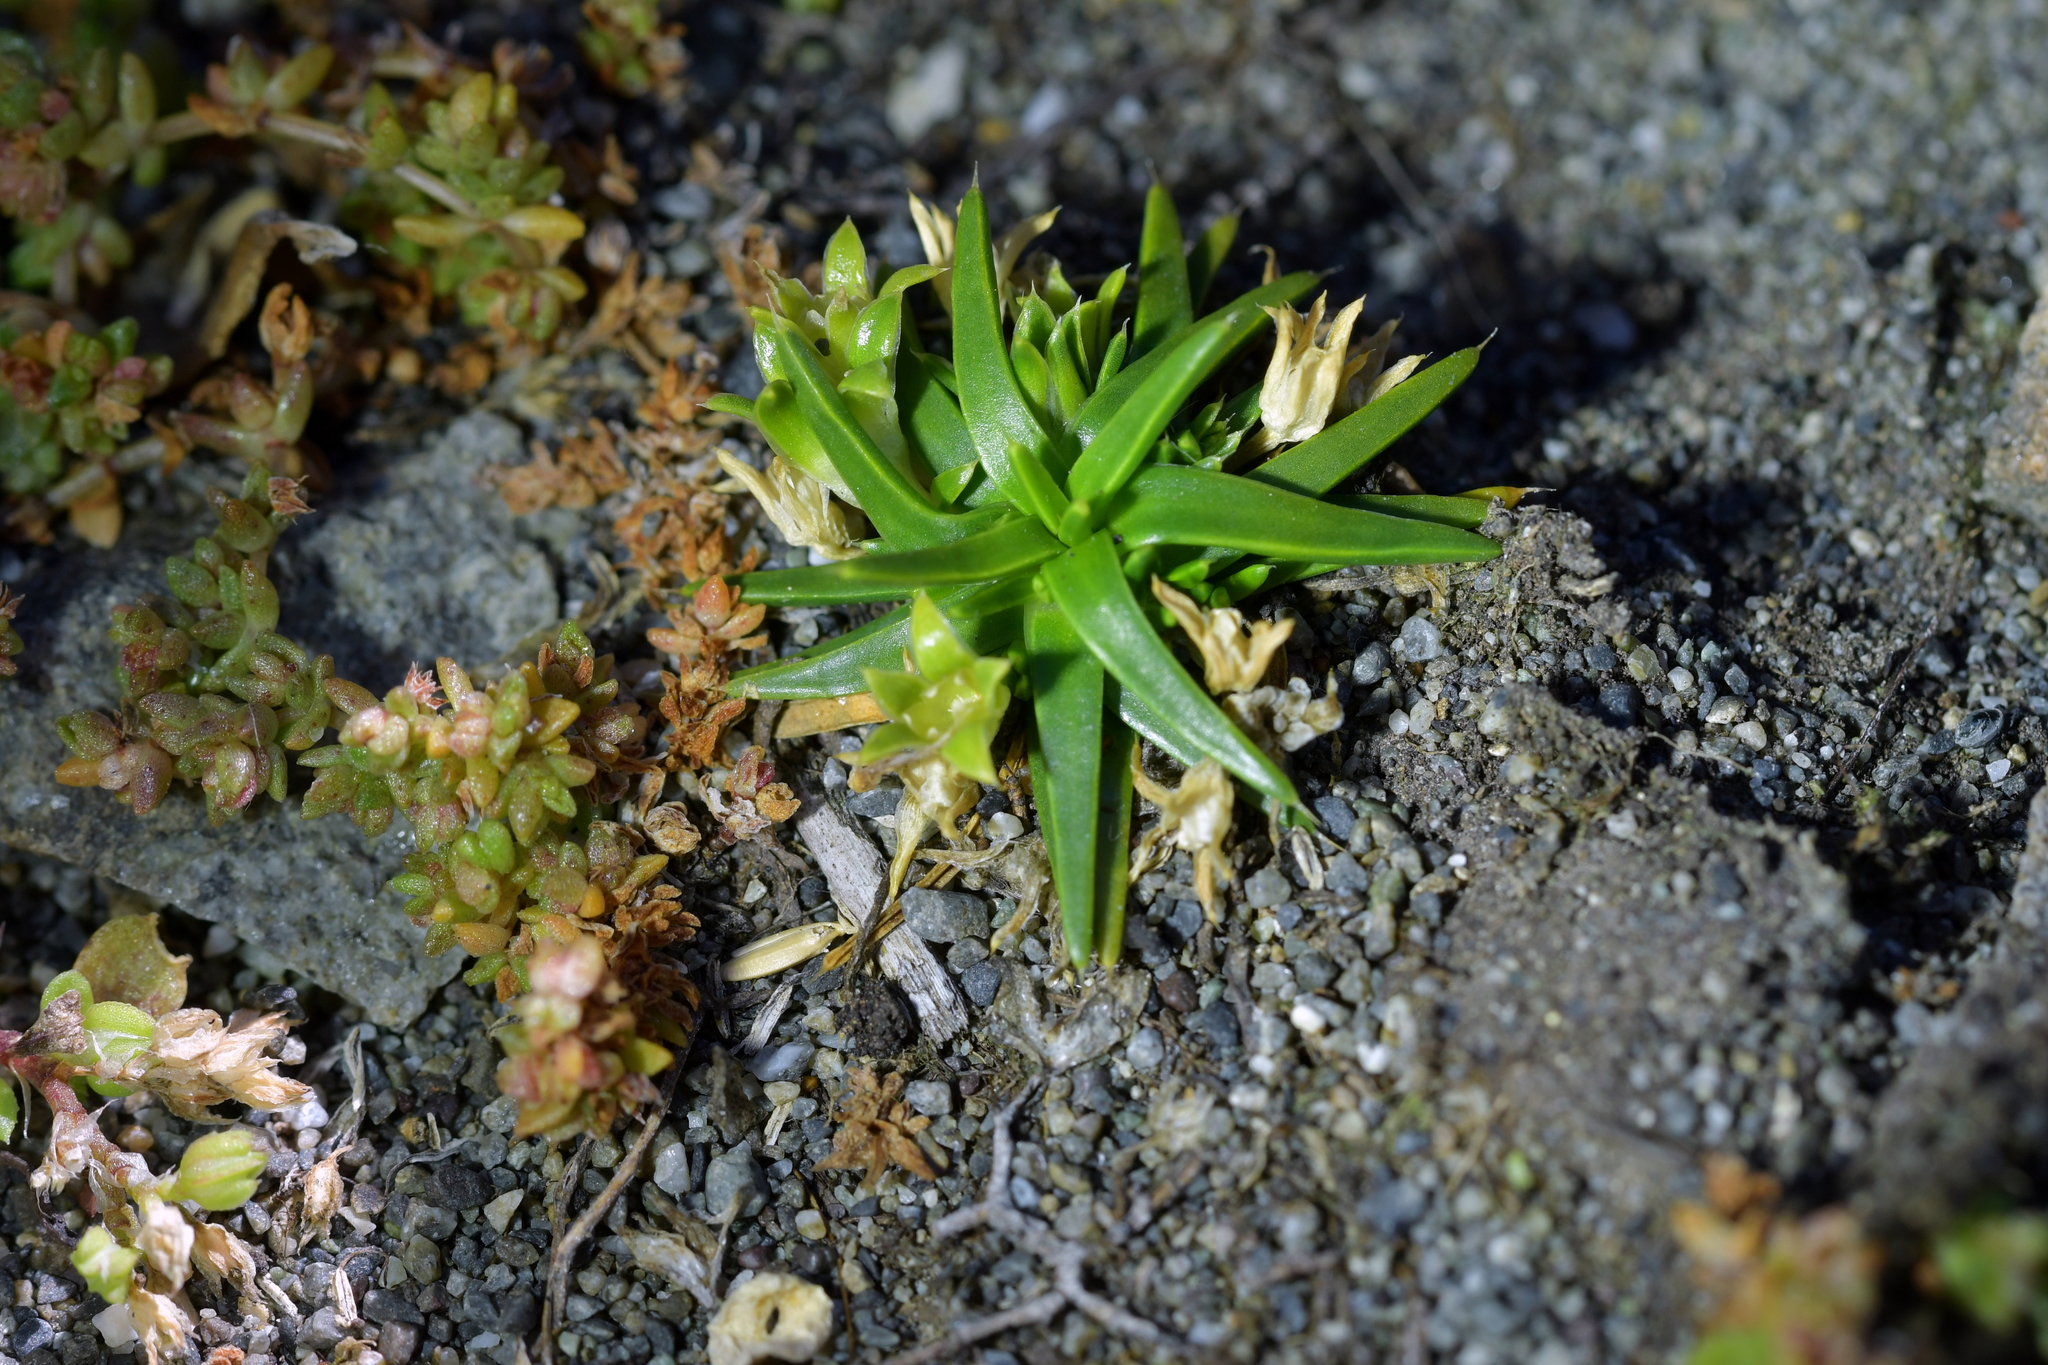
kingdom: Plantae
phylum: Tracheophyta
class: Magnoliopsida
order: Caryophyllales
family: Caryophyllaceae
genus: Colobanthus
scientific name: Colobanthus muelleri
